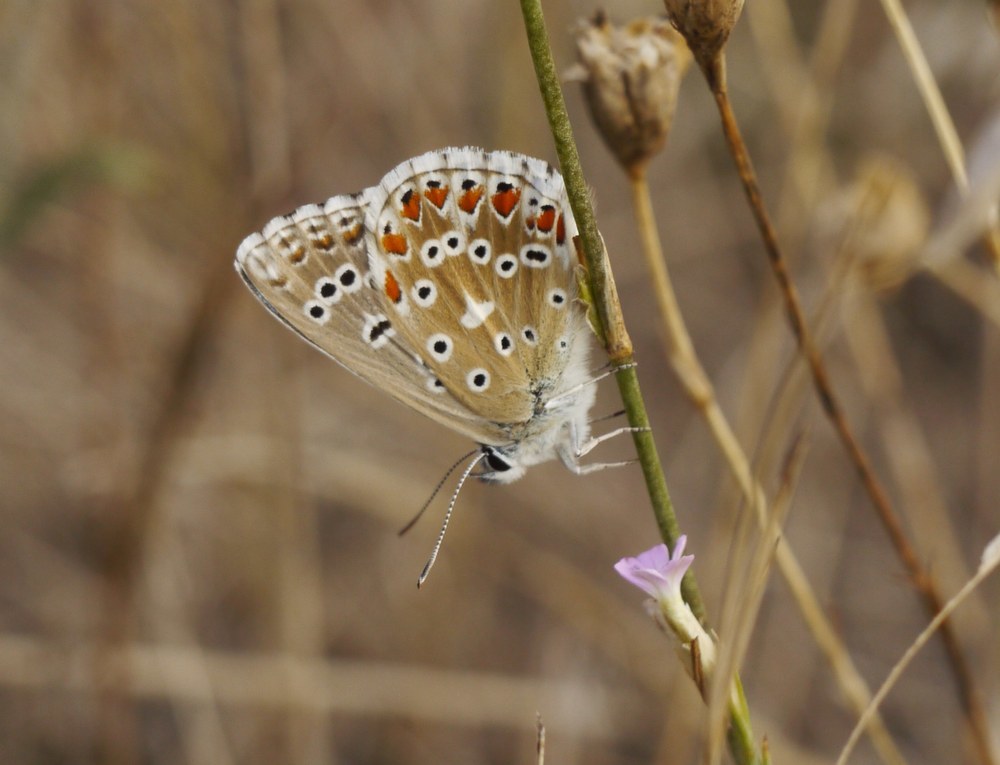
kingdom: Animalia
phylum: Arthropoda
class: Insecta
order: Lepidoptera
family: Lycaenidae
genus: Lysandra
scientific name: Lysandra bellargus
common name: Adonis blue
